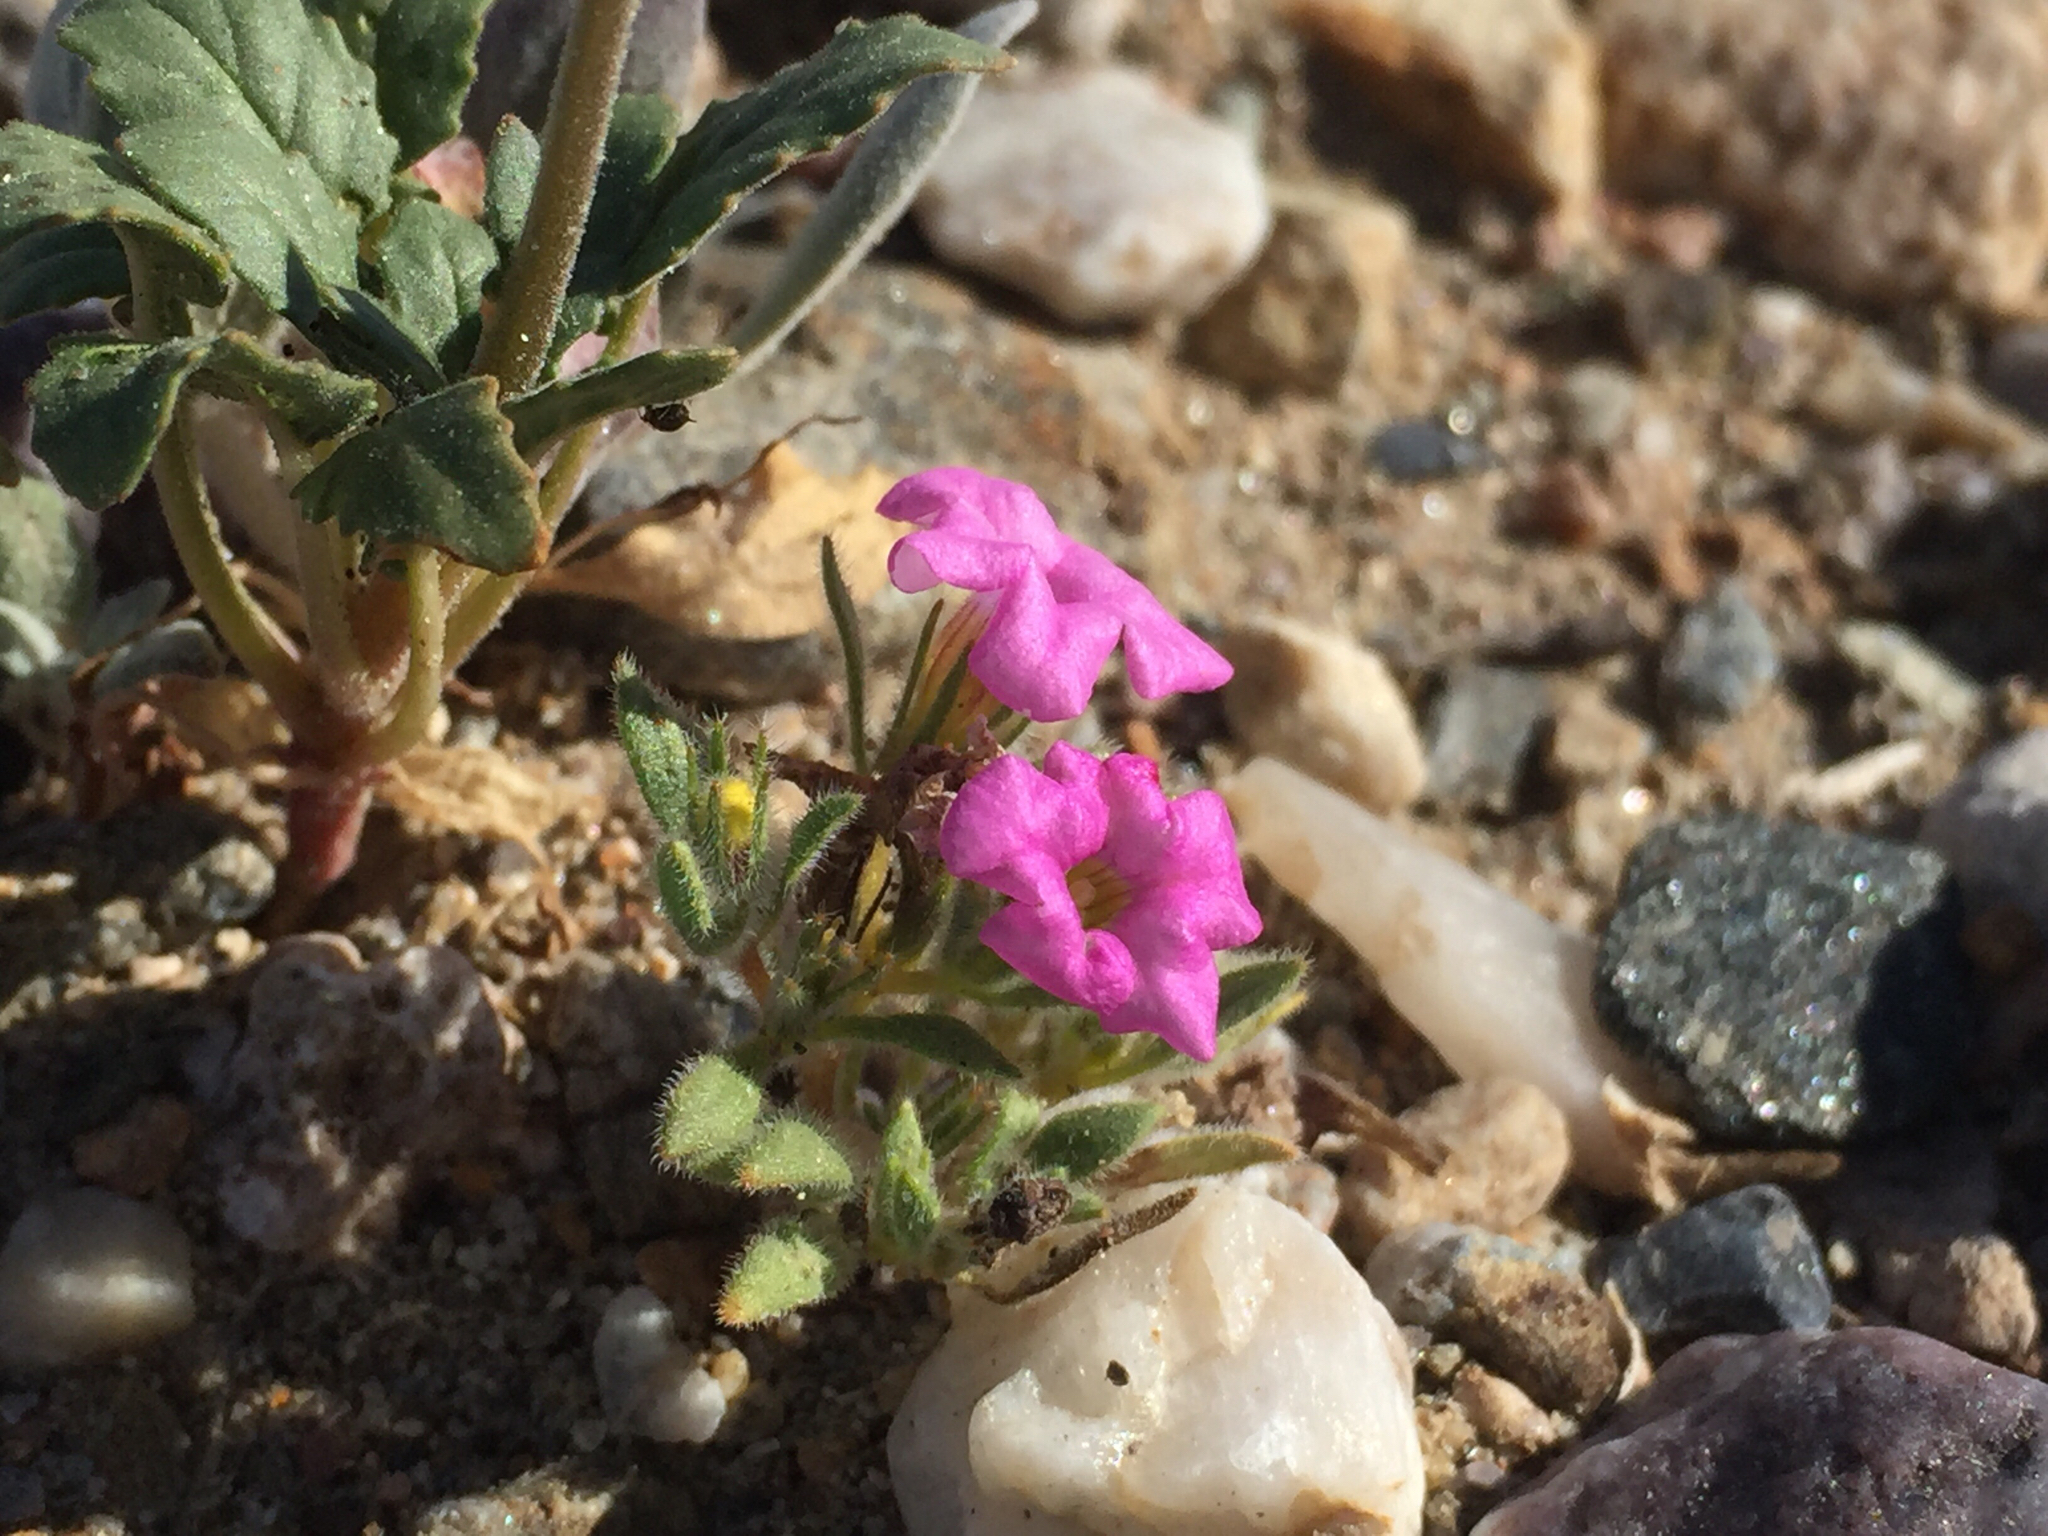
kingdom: Plantae
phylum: Tracheophyta
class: Magnoliopsida
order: Boraginales
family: Namaceae
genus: Nama
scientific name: Nama demissa
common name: Leafy nama
